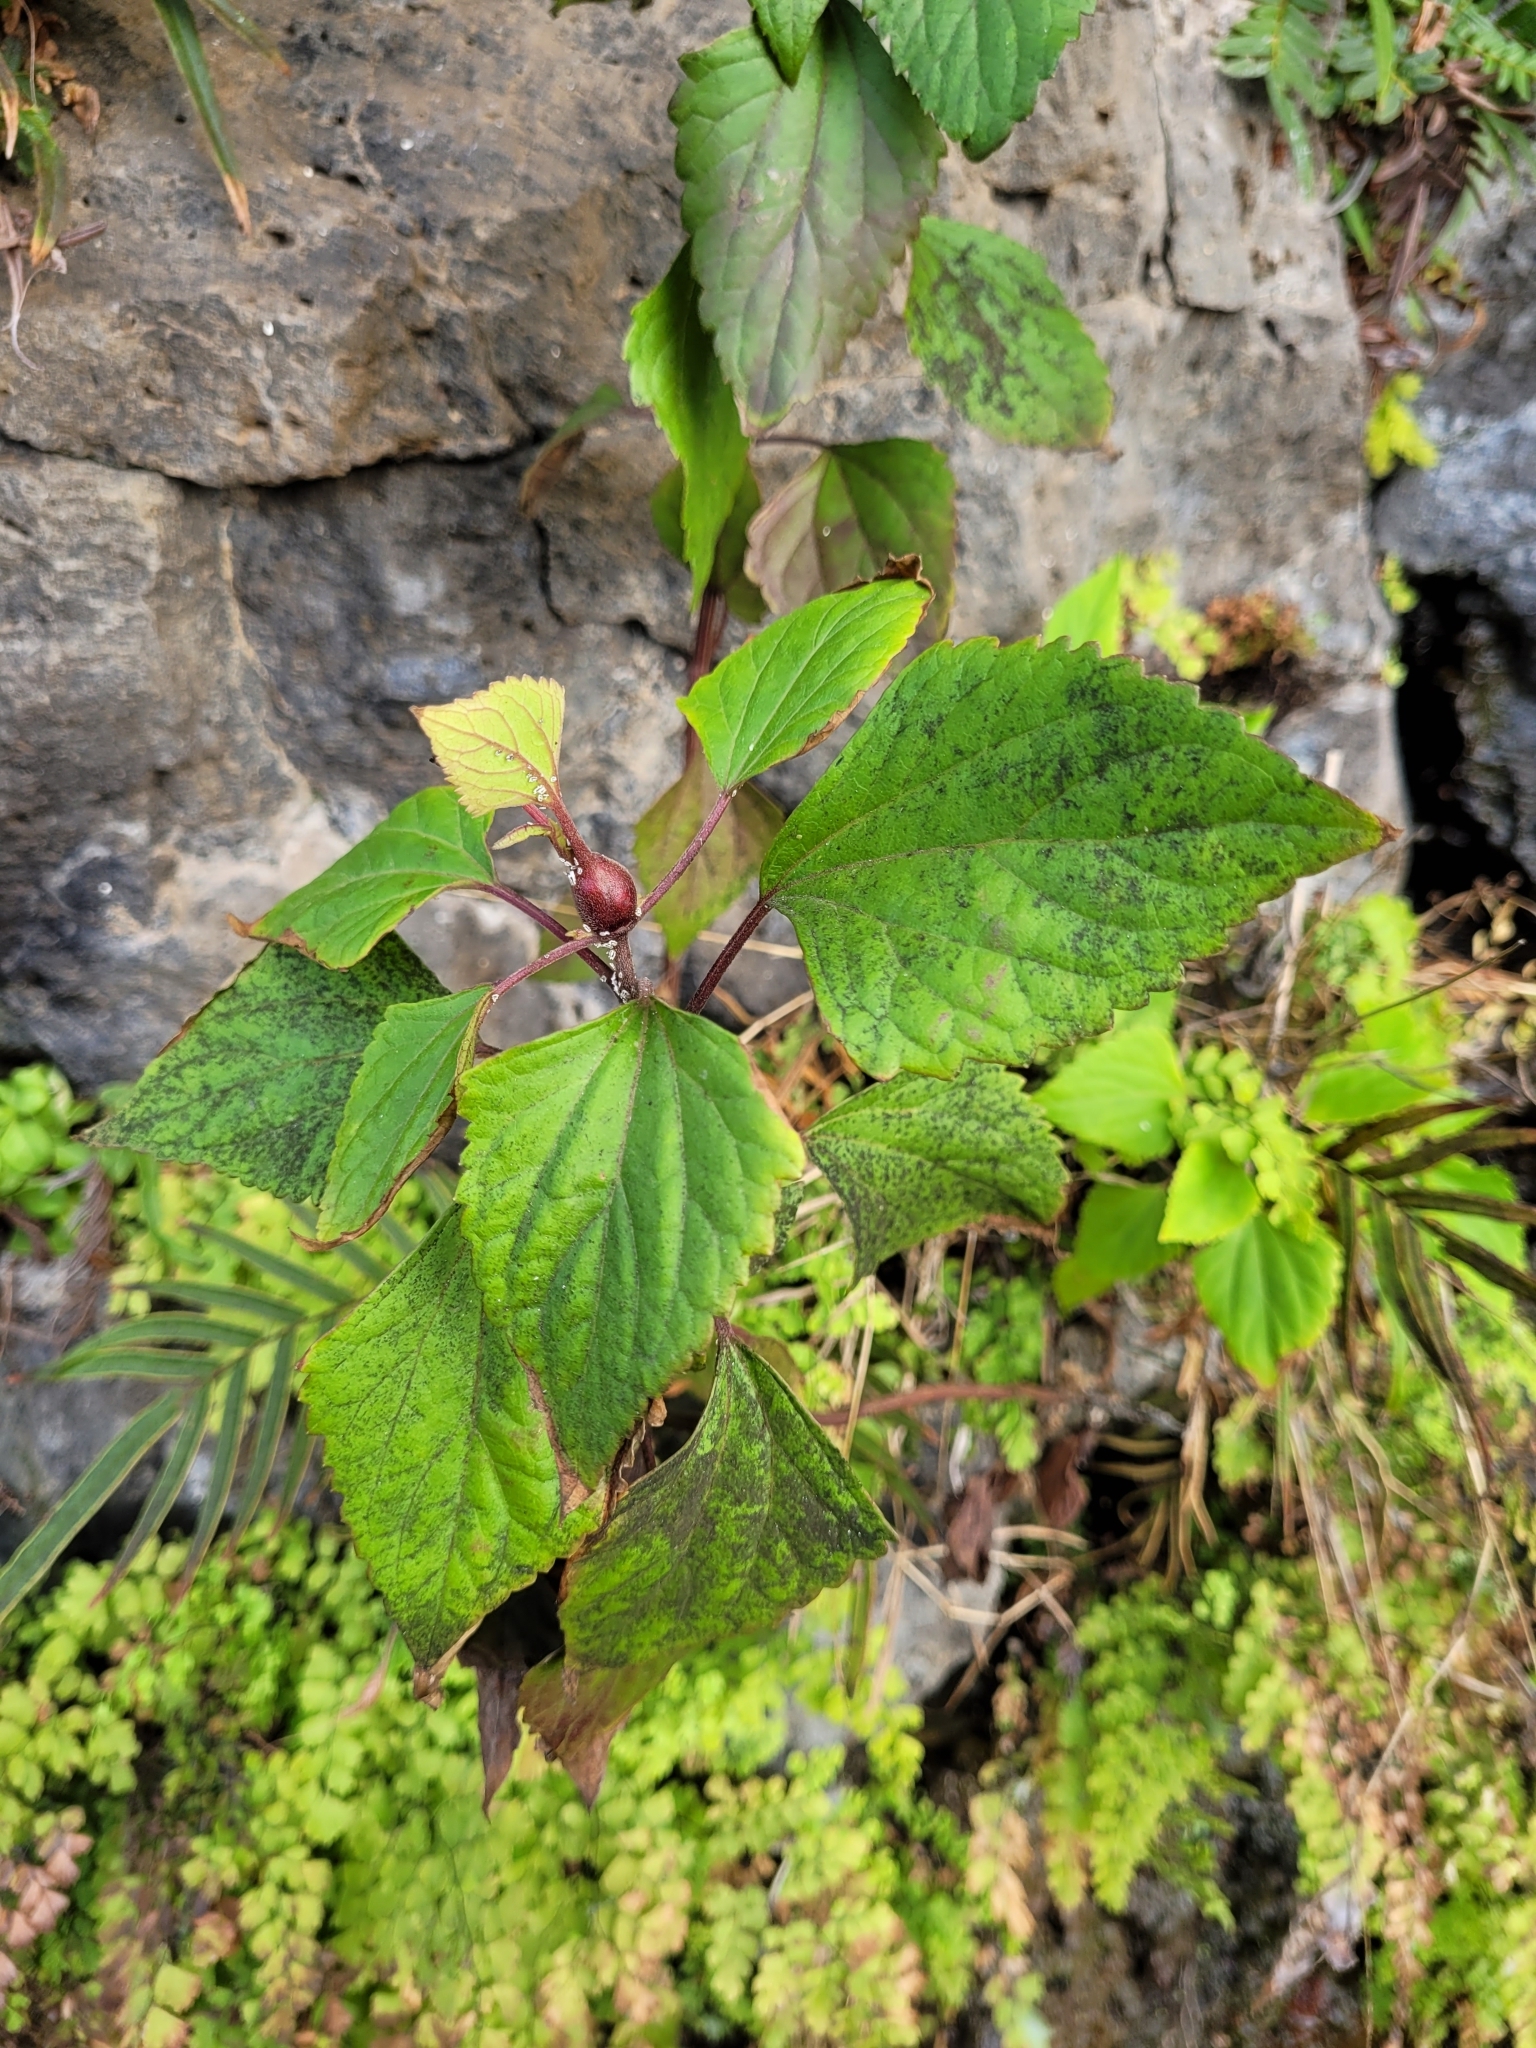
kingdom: Plantae
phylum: Tracheophyta
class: Magnoliopsida
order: Asterales
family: Asteraceae
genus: Ageratina
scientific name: Ageratina adenophora
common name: Sticky snakeroot
